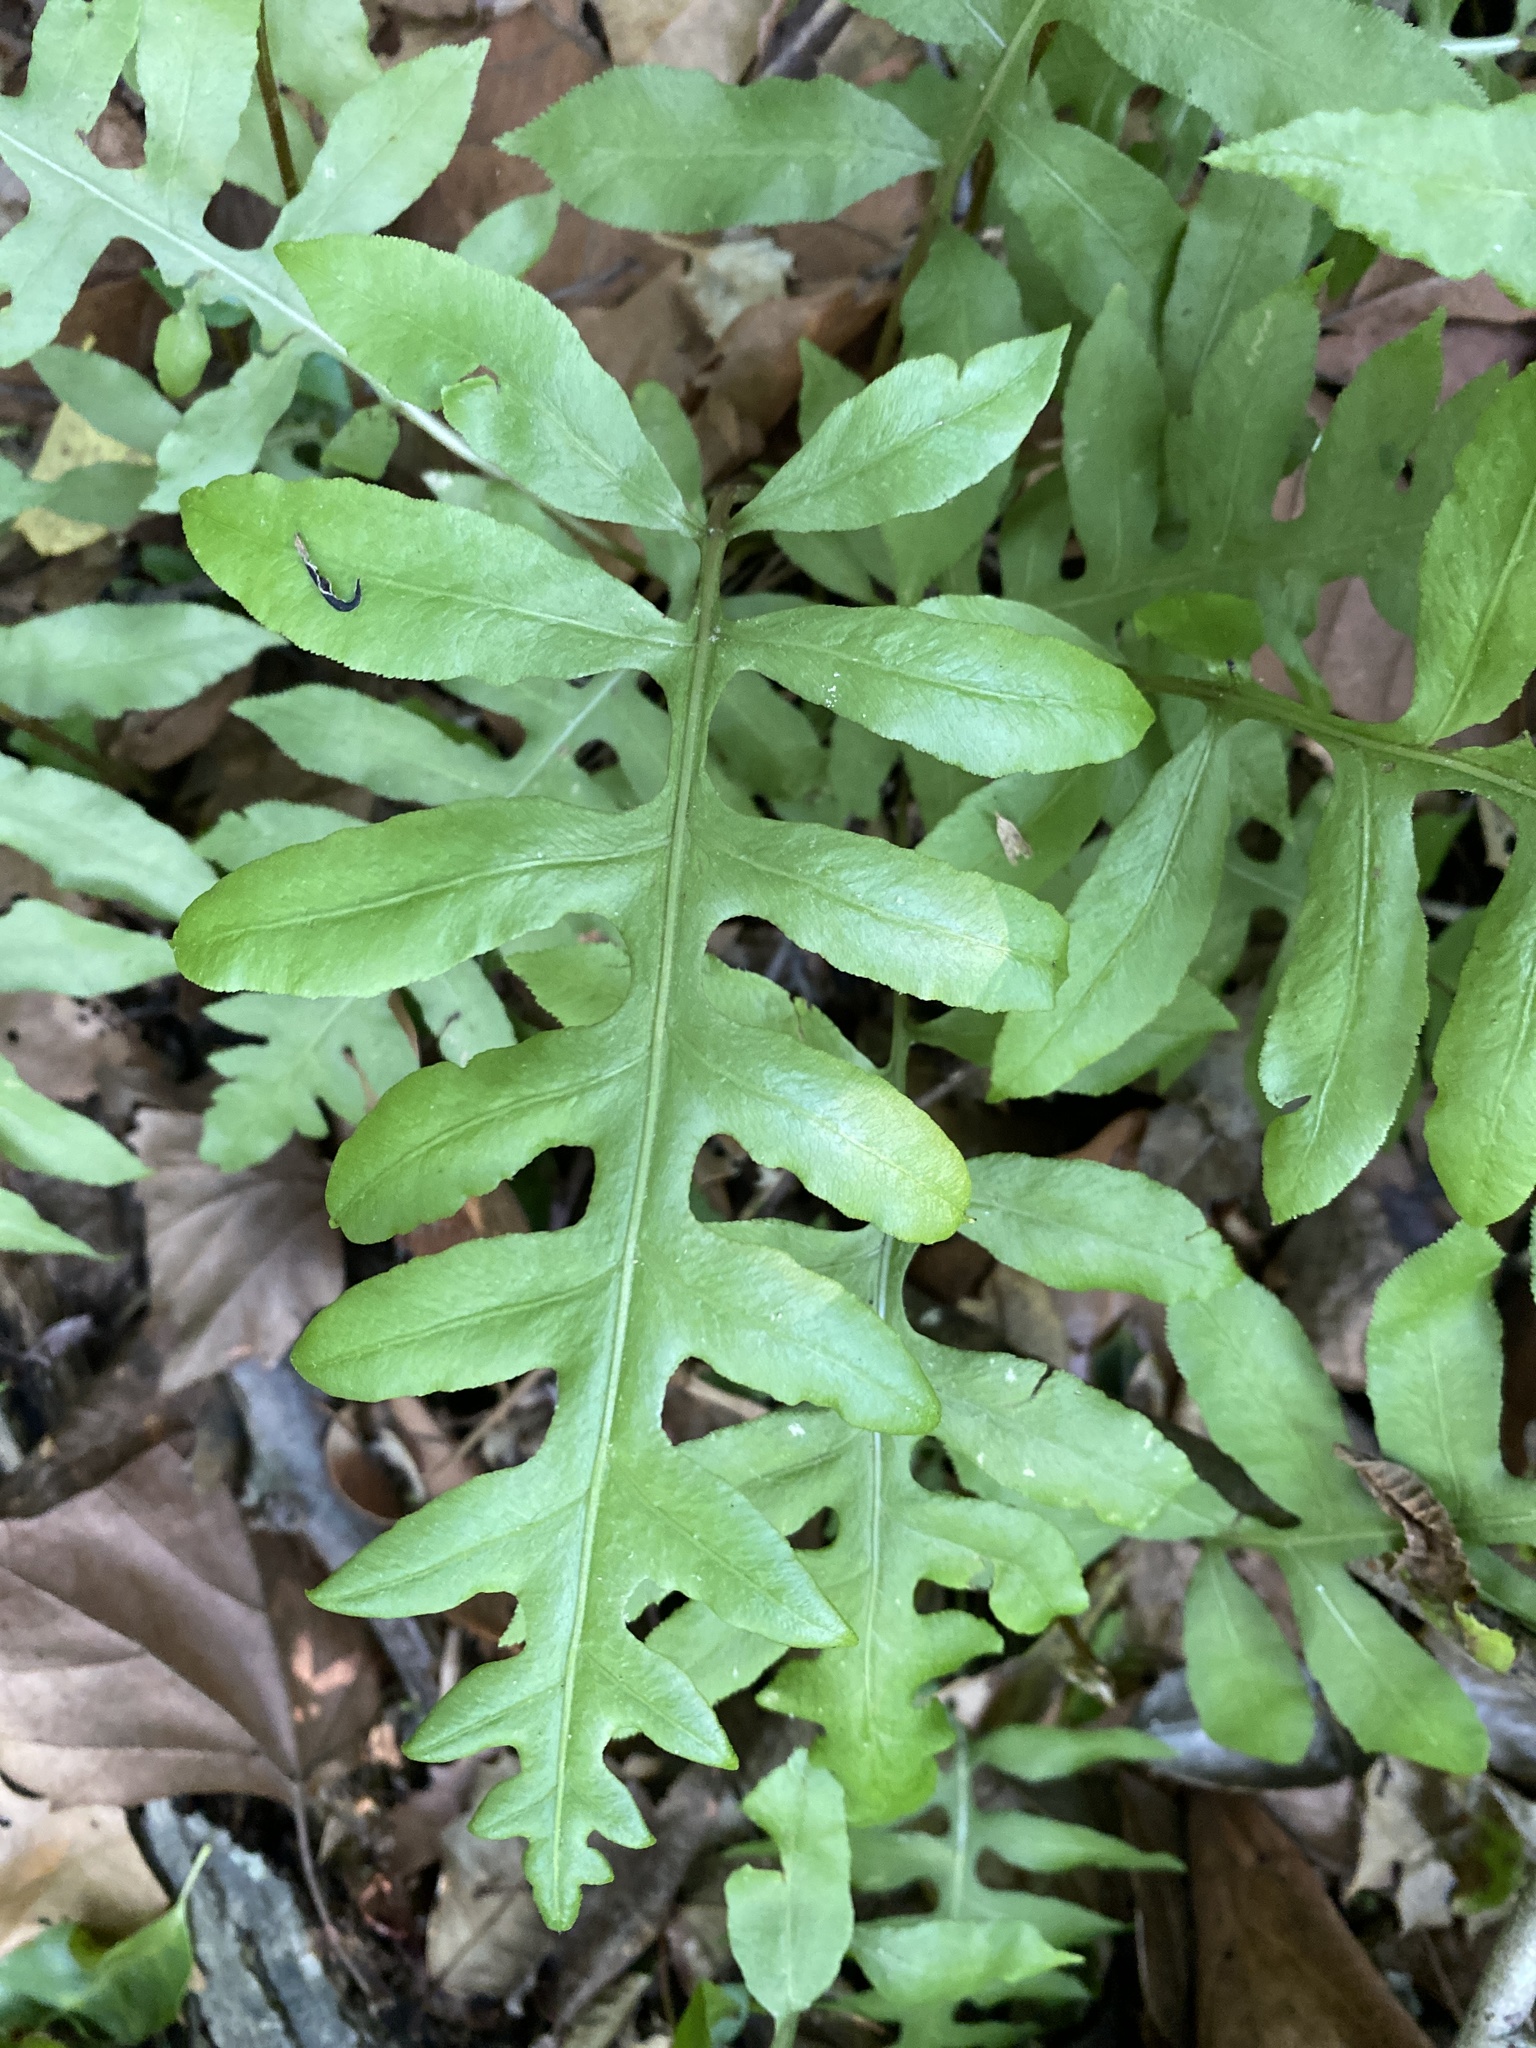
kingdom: Plantae
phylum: Tracheophyta
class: Polypodiopsida
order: Polypodiales
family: Blechnaceae
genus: Lorinseria
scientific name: Lorinseria areolata
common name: Dwarf chain fern
